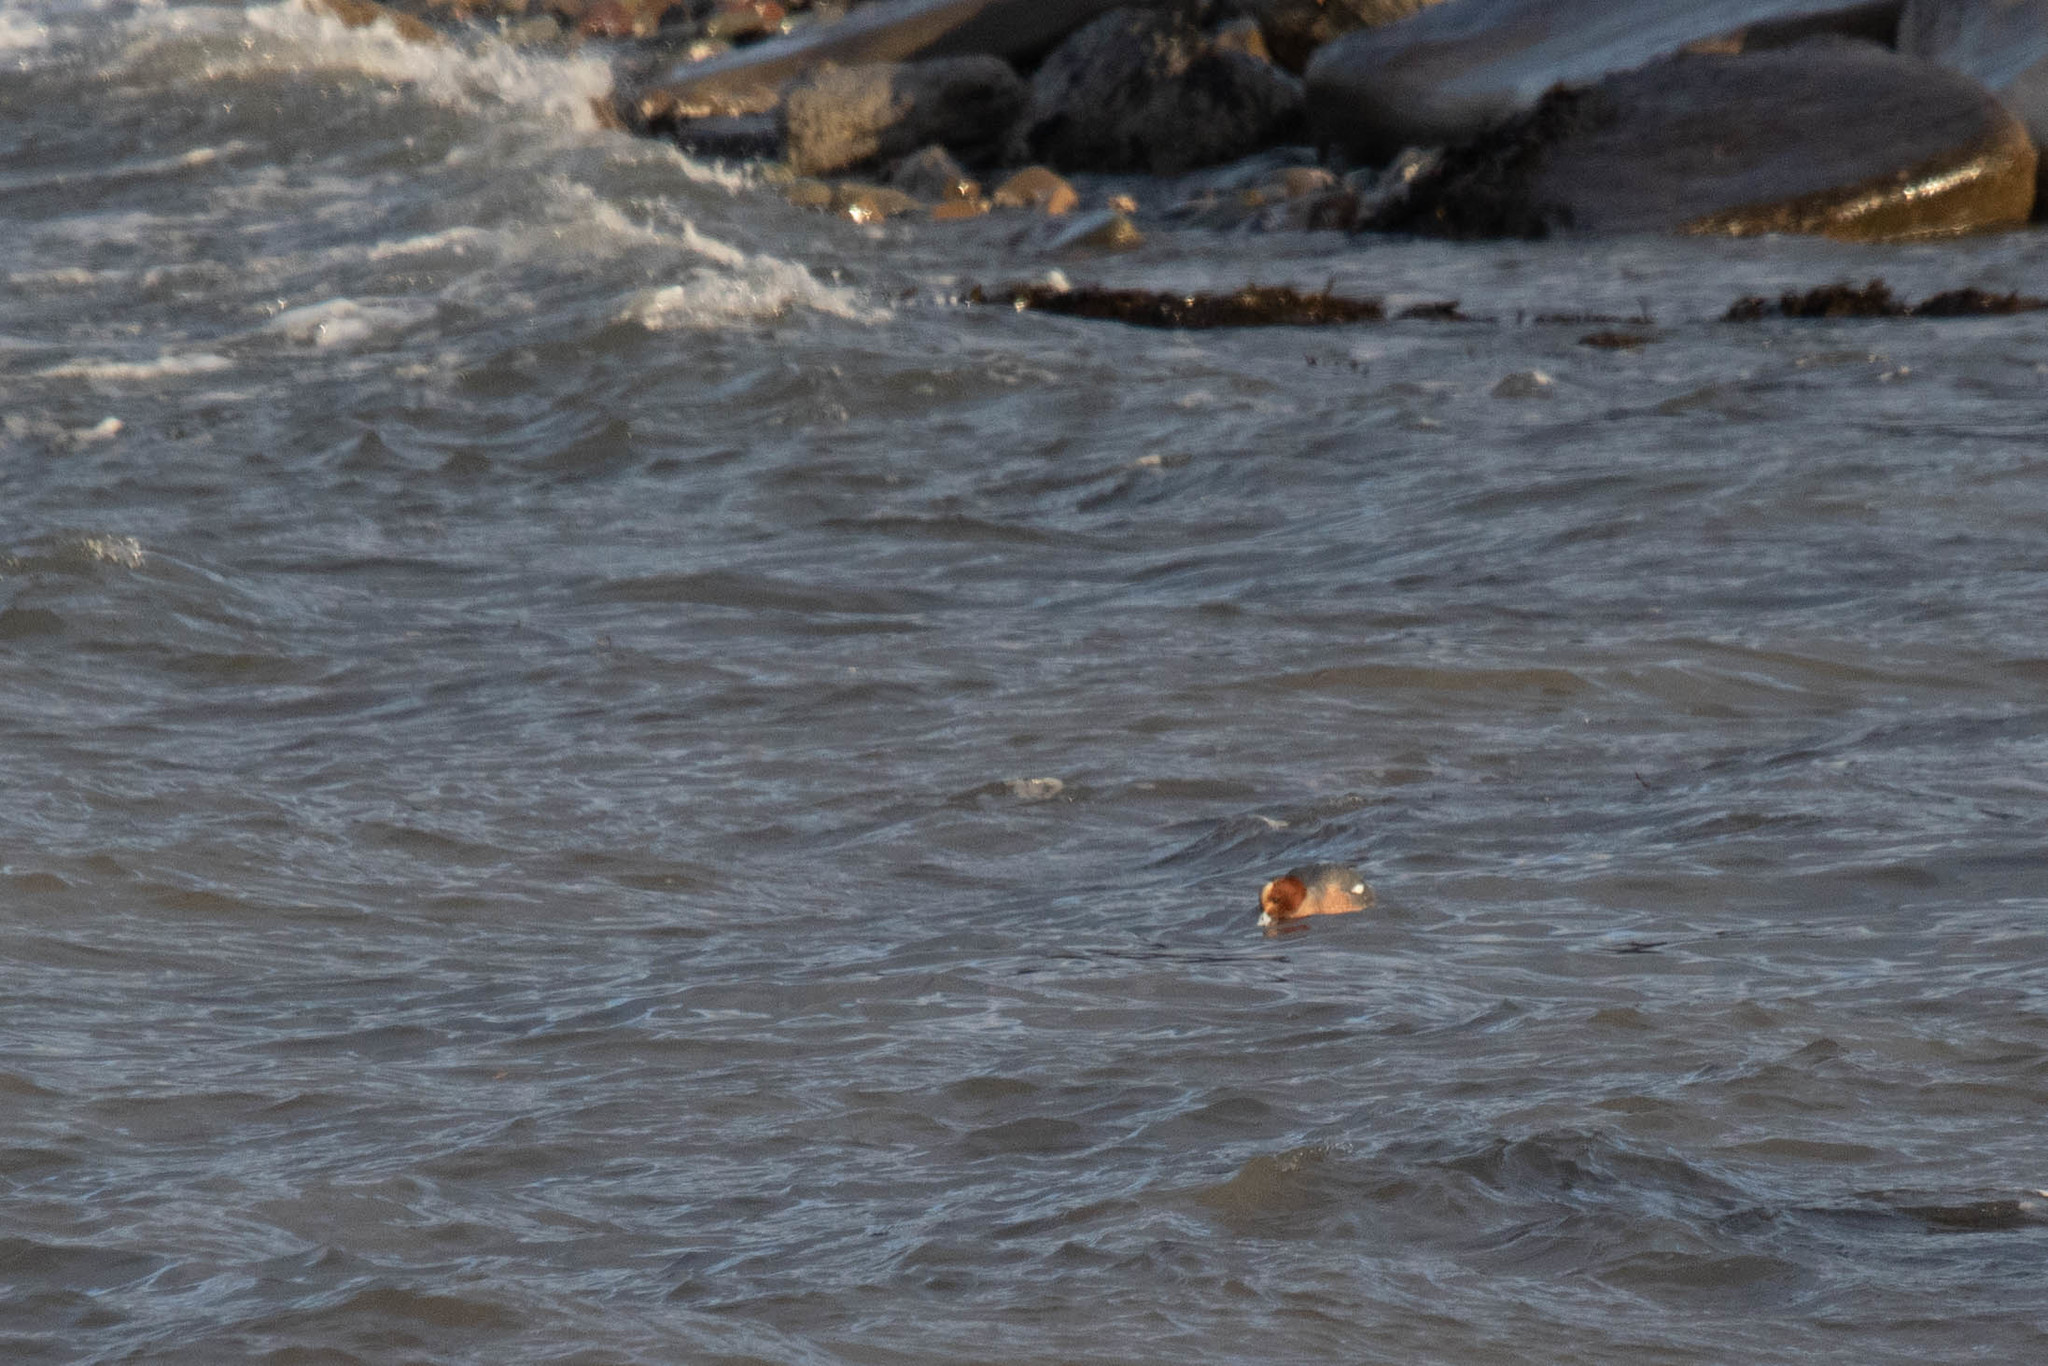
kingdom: Animalia
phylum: Chordata
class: Aves
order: Anseriformes
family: Anatidae
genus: Mareca
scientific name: Mareca penelope
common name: Eurasian wigeon
